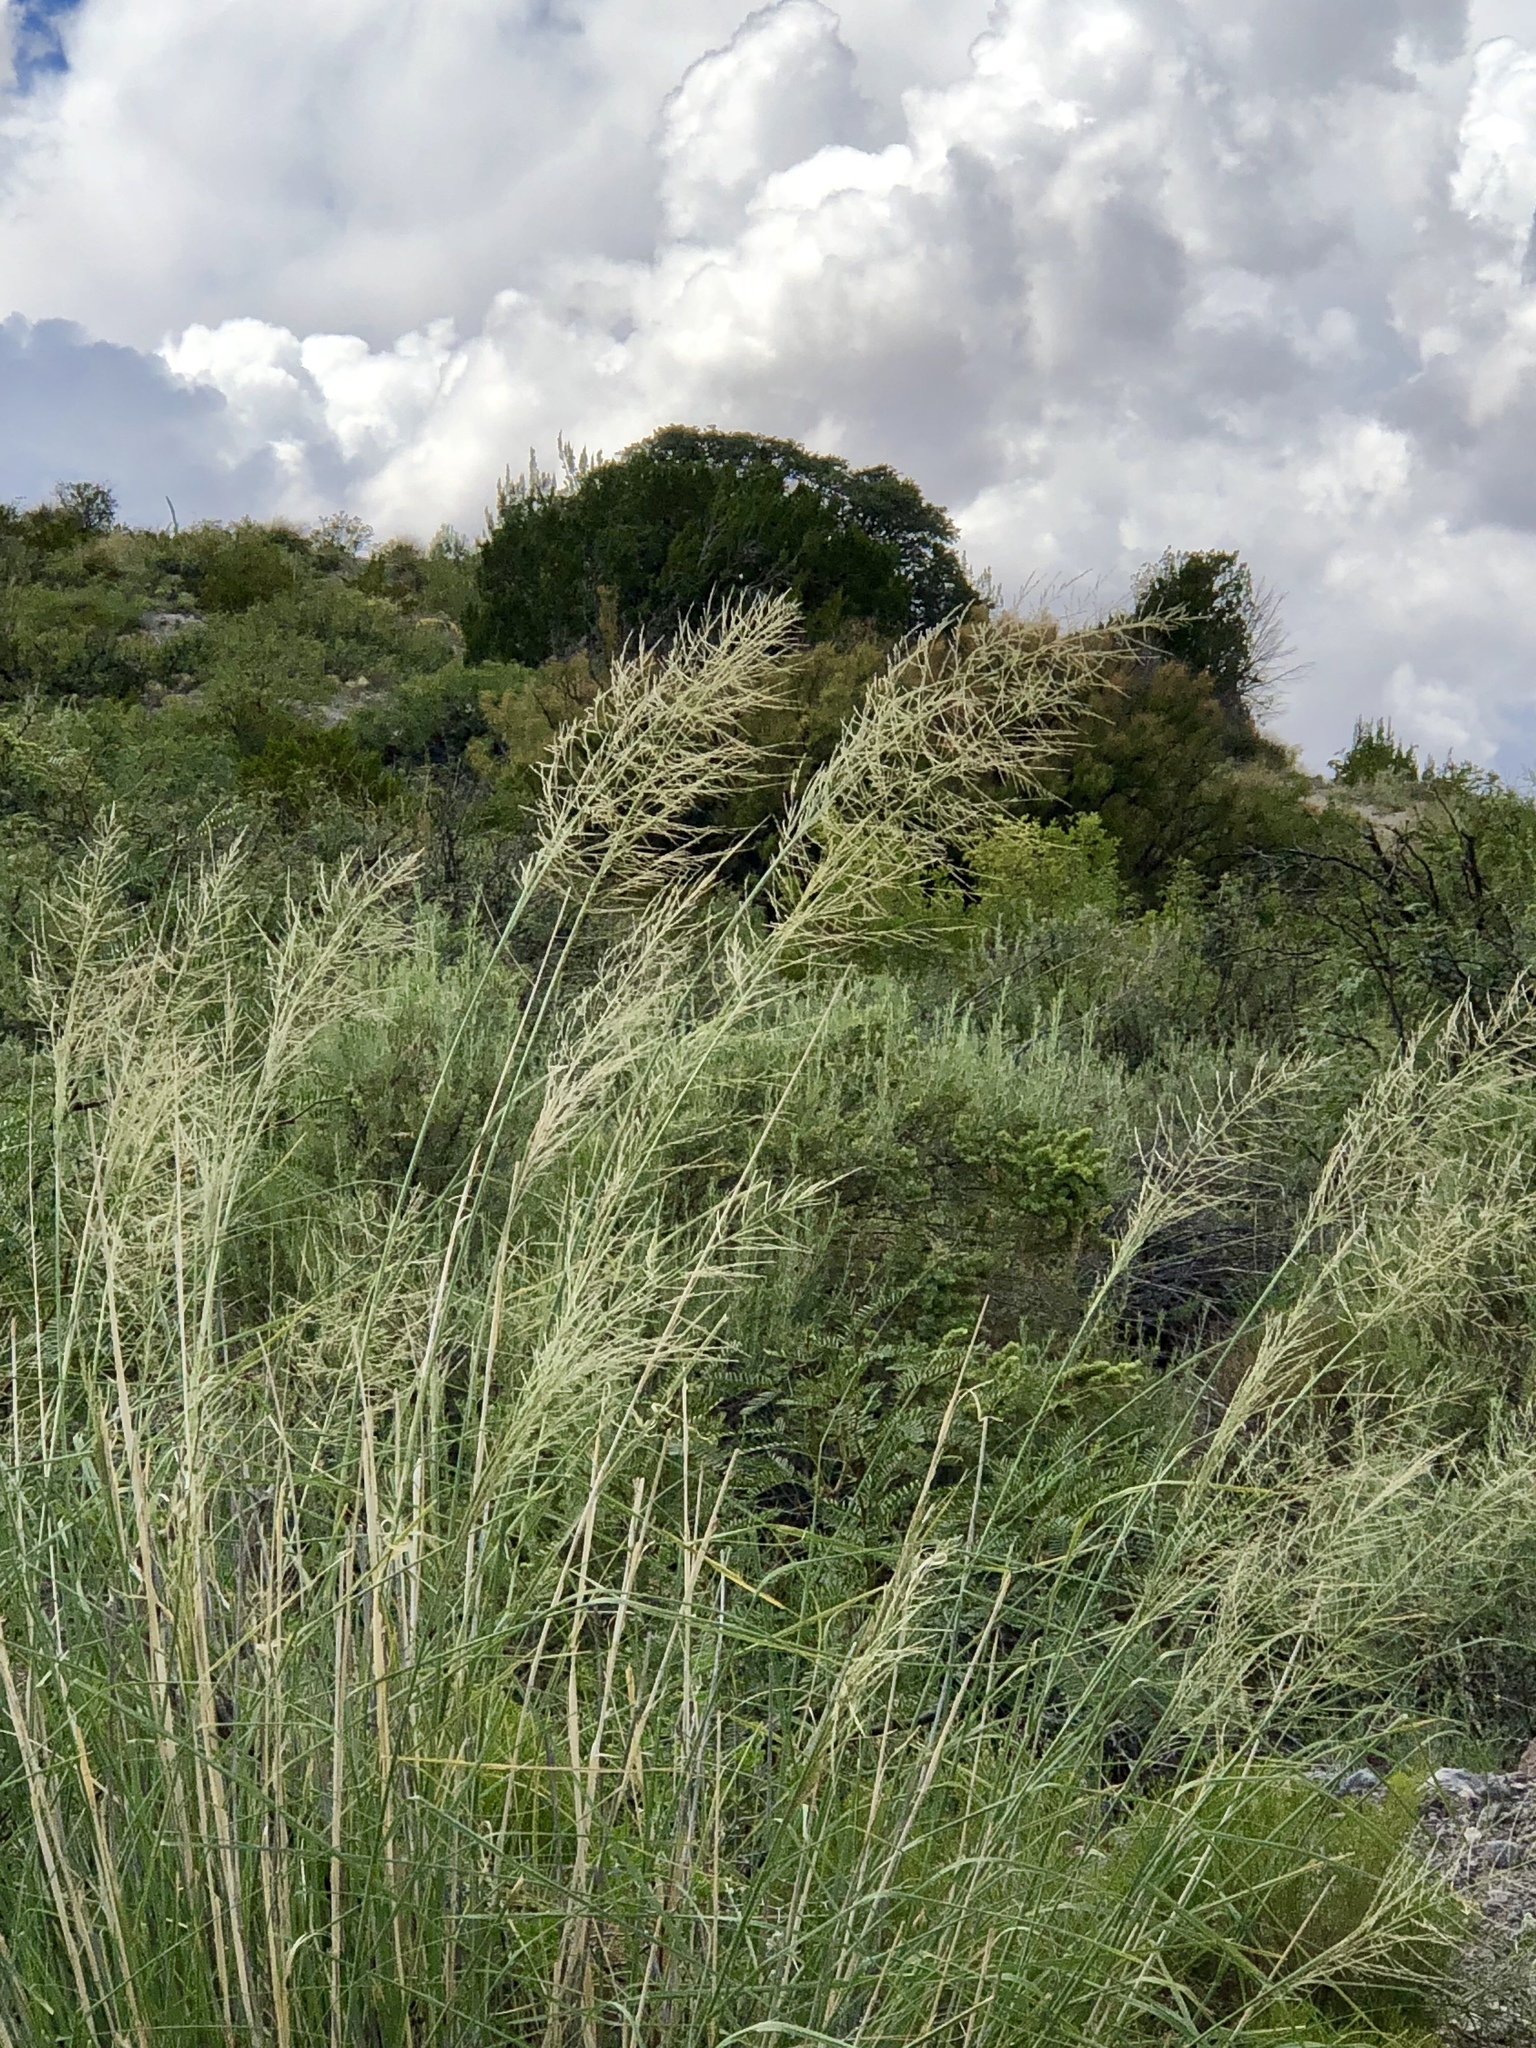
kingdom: Plantae
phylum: Tracheophyta
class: Liliopsida
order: Poales
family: Poaceae
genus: Sporobolus
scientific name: Sporobolus wrightii
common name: Big alkali sacaton
